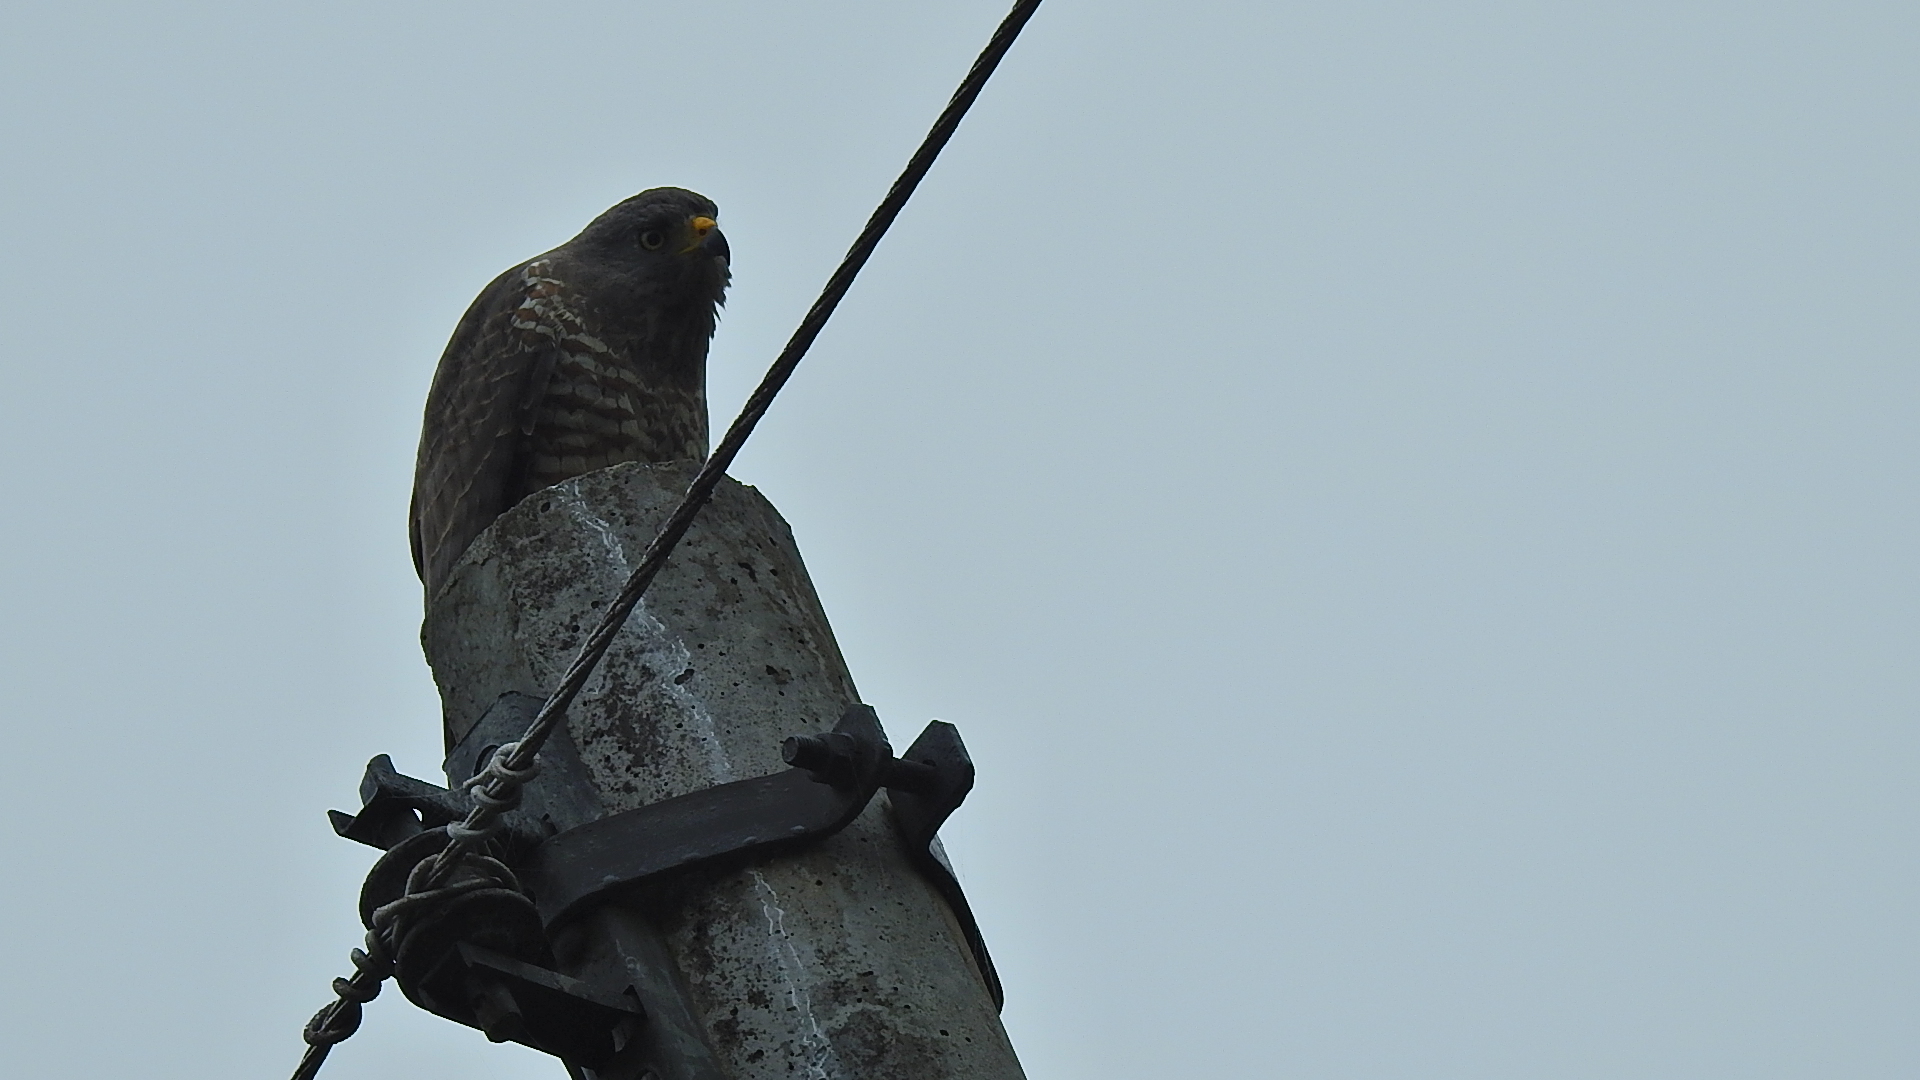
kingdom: Animalia
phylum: Chordata
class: Aves
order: Accipitriformes
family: Accipitridae
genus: Rupornis
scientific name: Rupornis magnirostris
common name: Roadside hawk
